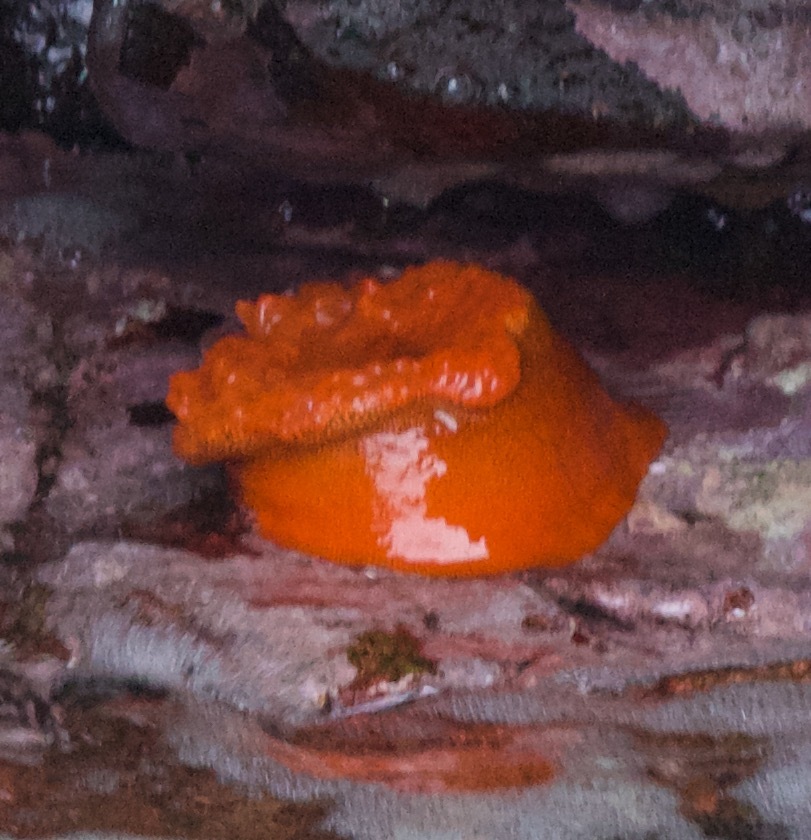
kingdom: Animalia
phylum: Cnidaria
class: Anthozoa
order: Actiniaria
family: Actiniidae
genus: Phymanthea
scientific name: Phymanthea pluvia
